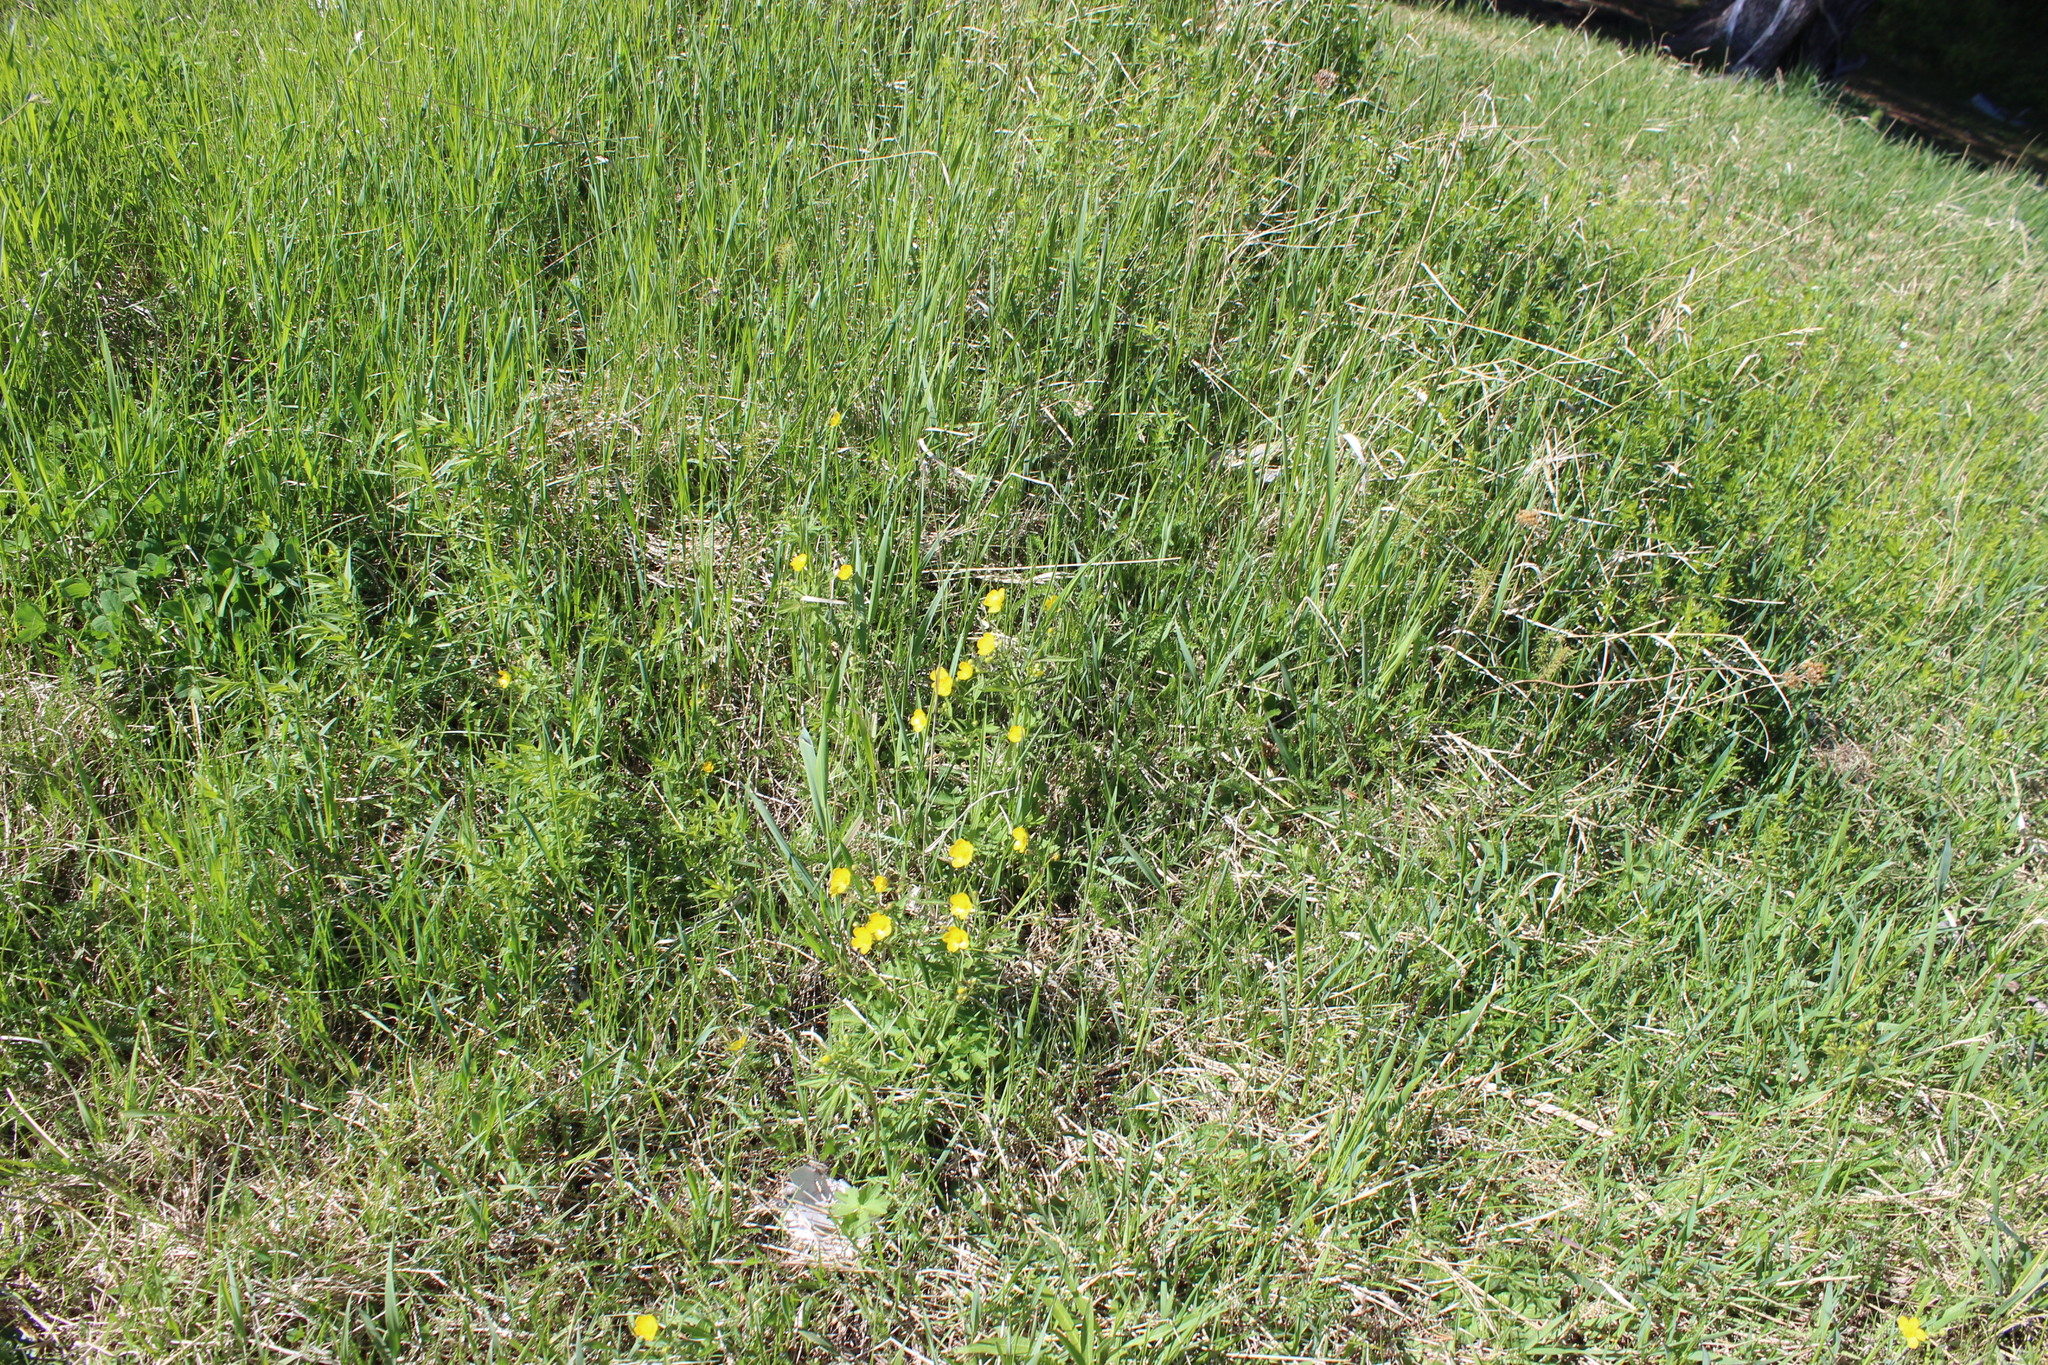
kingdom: Plantae
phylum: Tracheophyta
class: Magnoliopsida
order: Ranunculales
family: Ranunculaceae
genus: Ranunculus
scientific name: Ranunculus polyanthemos
